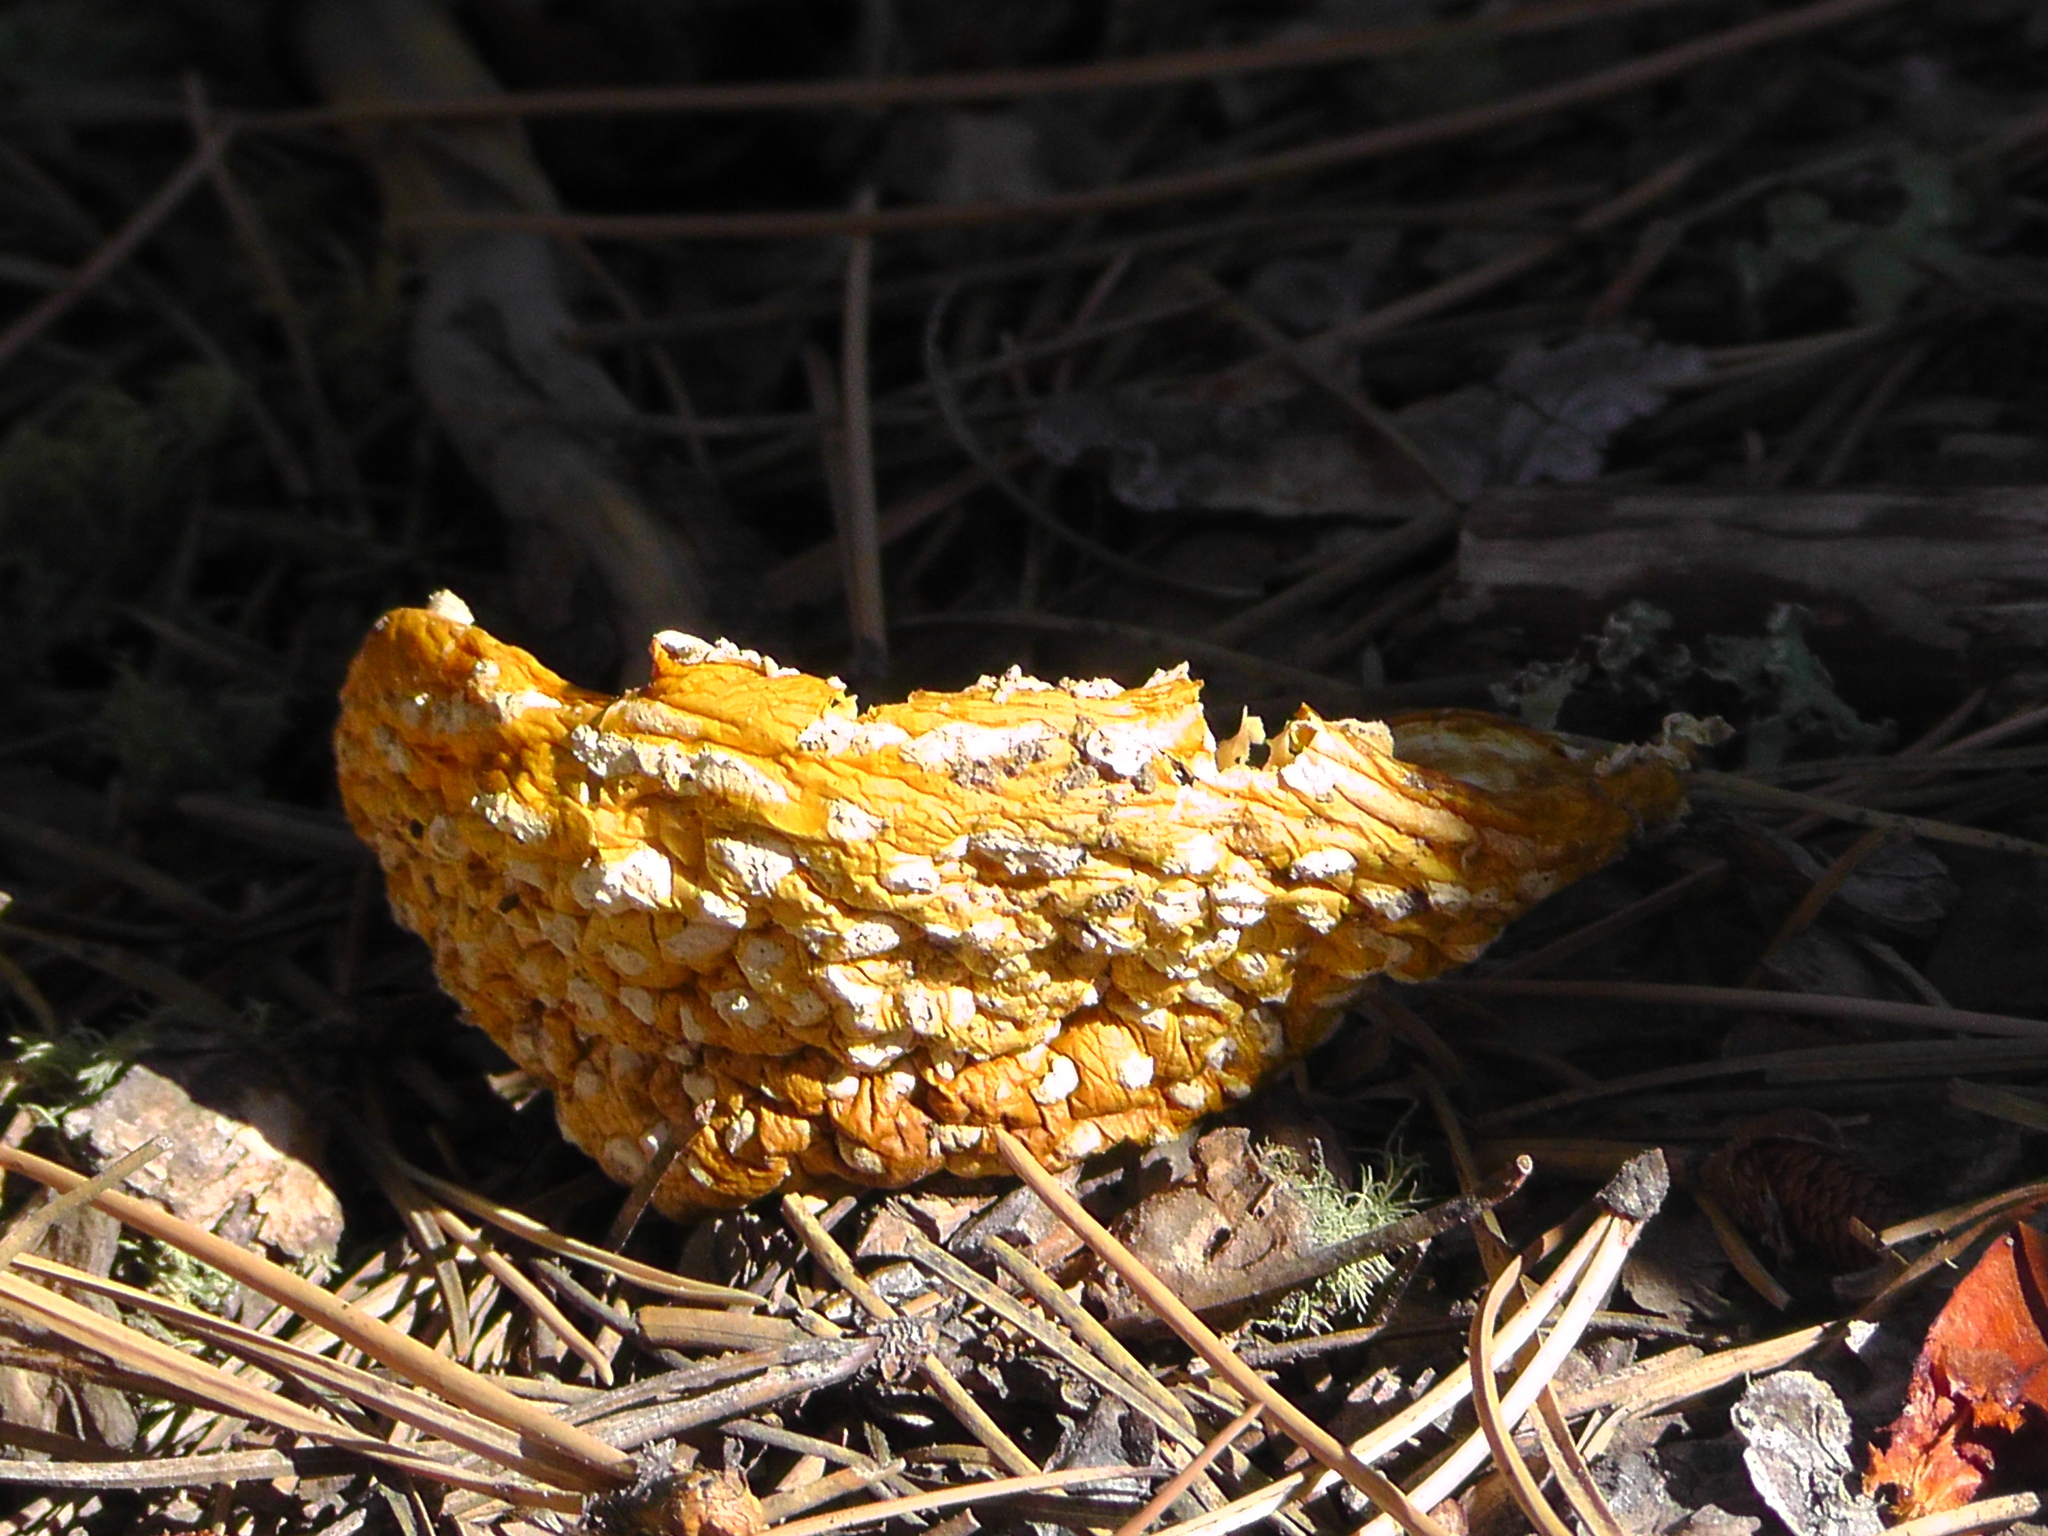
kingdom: Fungi
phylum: Basidiomycota
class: Agaricomycetes
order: Agaricales
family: Amanitaceae
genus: Amanita
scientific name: Amanita muscaria
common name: Fly agaric
